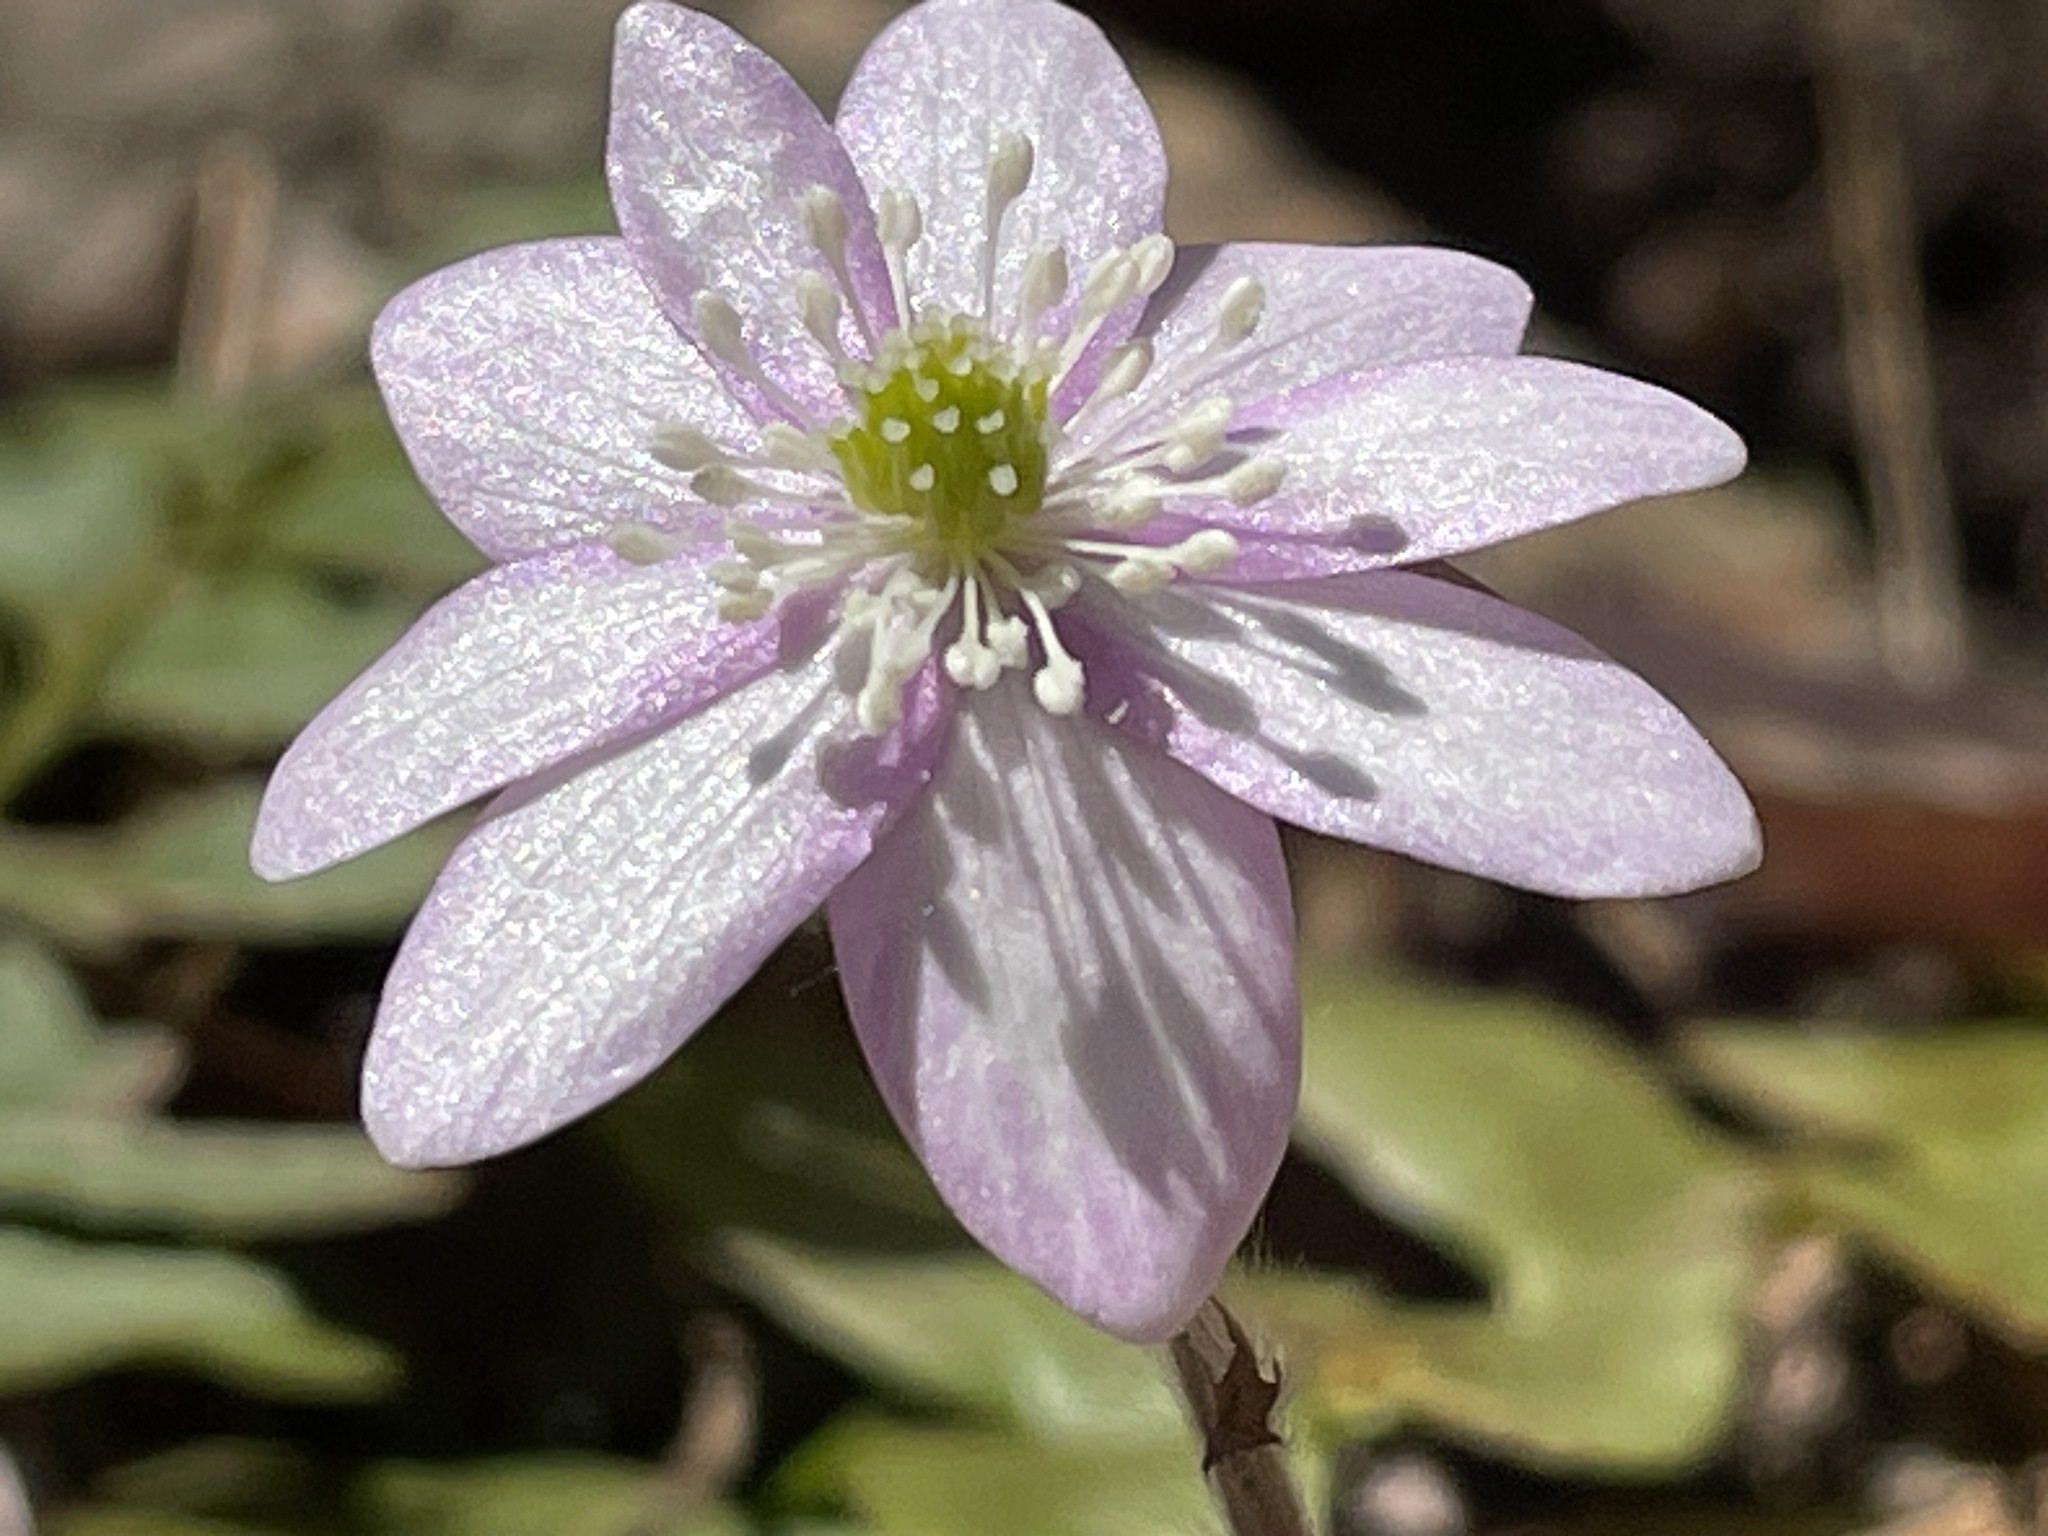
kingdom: Plantae
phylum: Tracheophyta
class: Magnoliopsida
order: Ranunculales
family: Ranunculaceae
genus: Hepatica
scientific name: Hepatica acutiloba
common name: Sharp-lobed hepatica
